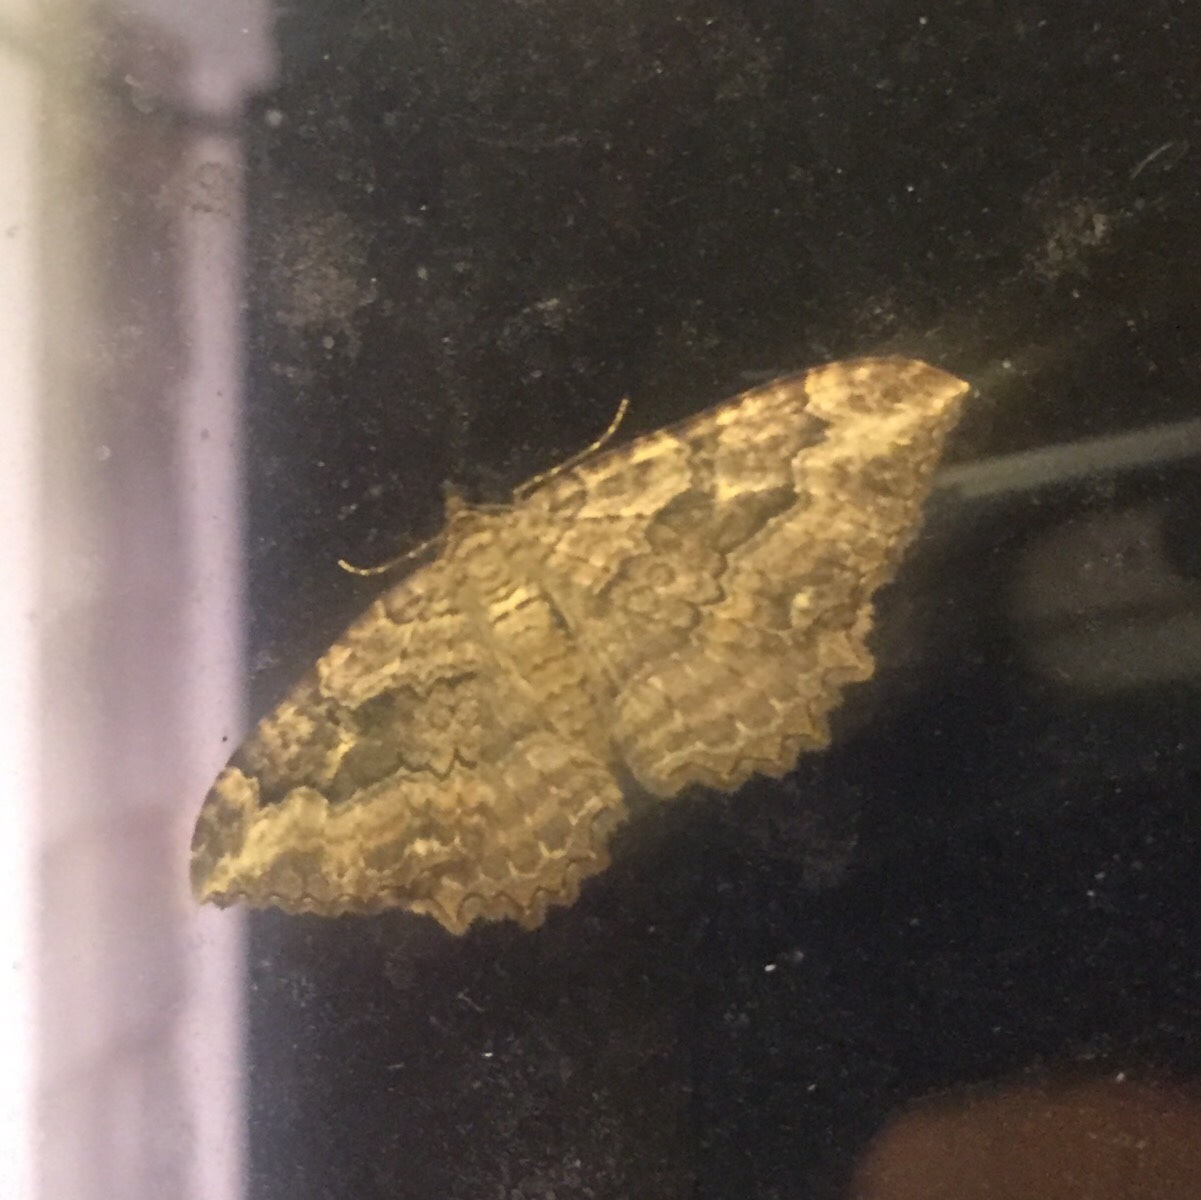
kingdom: Animalia
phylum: Arthropoda
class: Insecta
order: Lepidoptera
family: Geometridae
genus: Rheumaptera
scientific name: Rheumaptera
